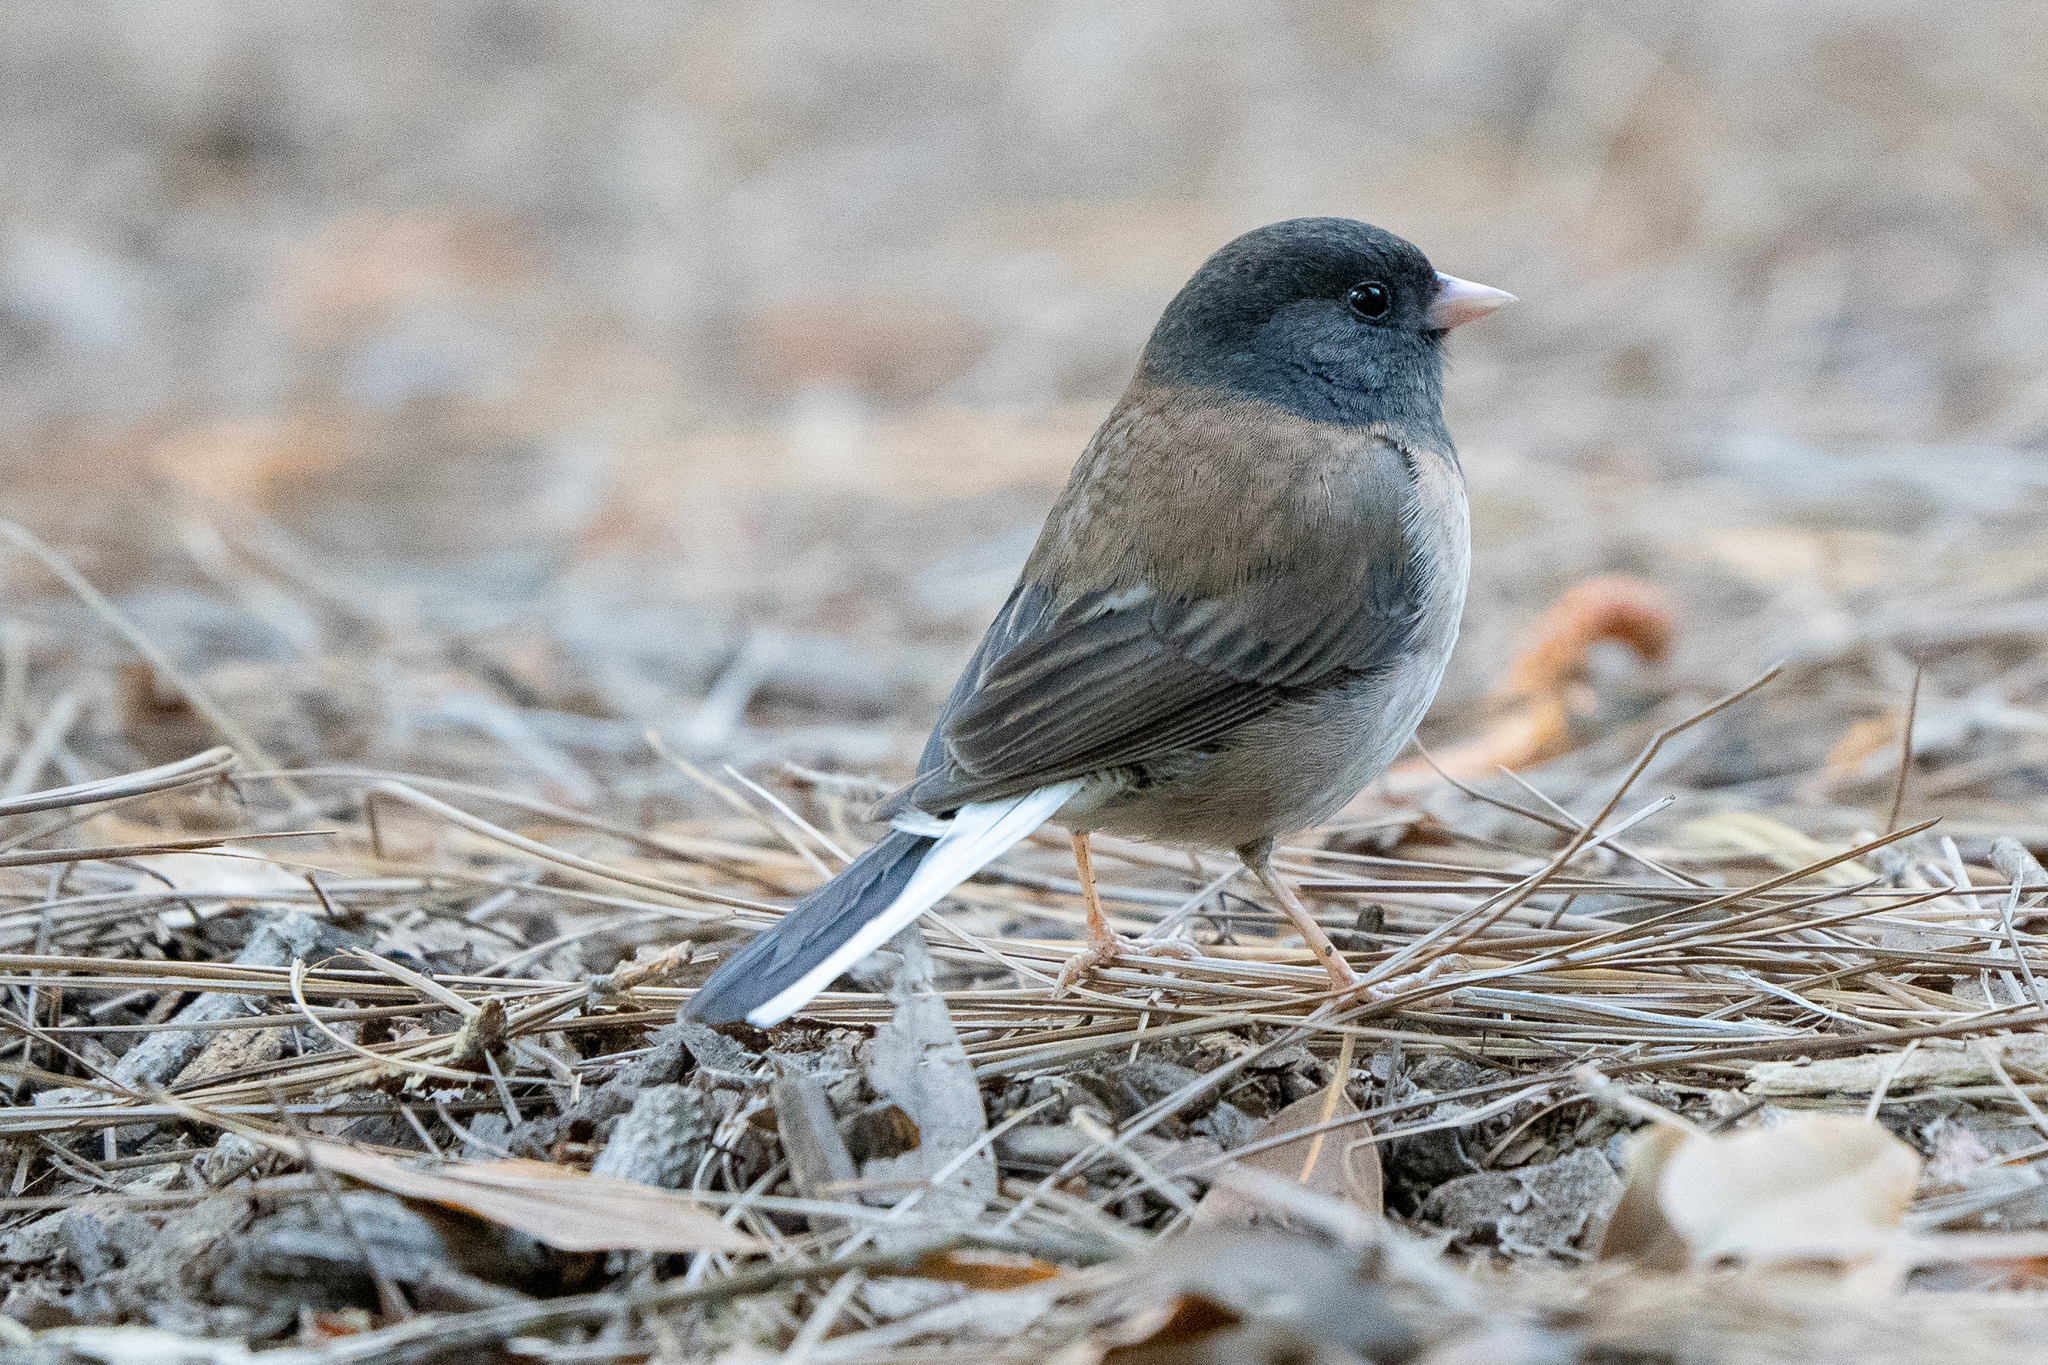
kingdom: Animalia
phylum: Chordata
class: Aves
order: Passeriformes
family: Passerellidae
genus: Junco
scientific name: Junco hyemalis
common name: Dark-eyed junco
